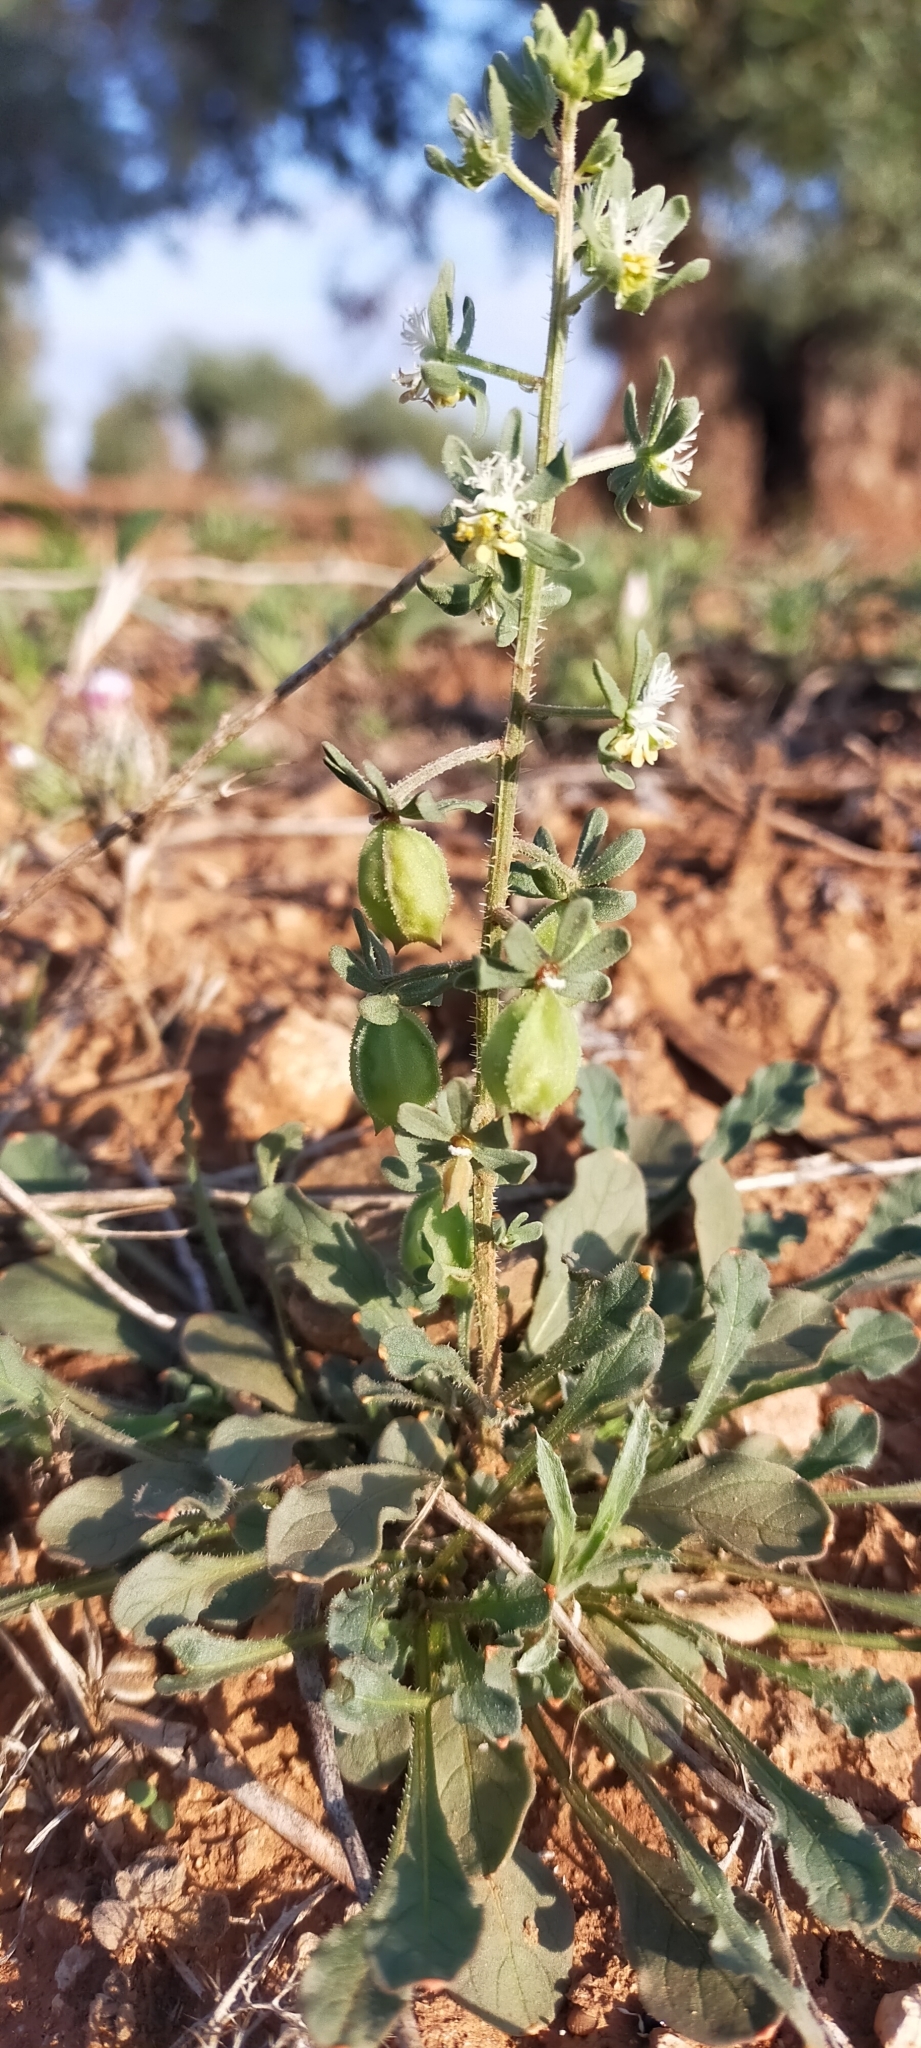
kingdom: Plantae
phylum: Tracheophyta
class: Magnoliopsida
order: Brassicales
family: Resedaceae
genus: Reseda
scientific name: Reseda phyteuma
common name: Corn mignonette
